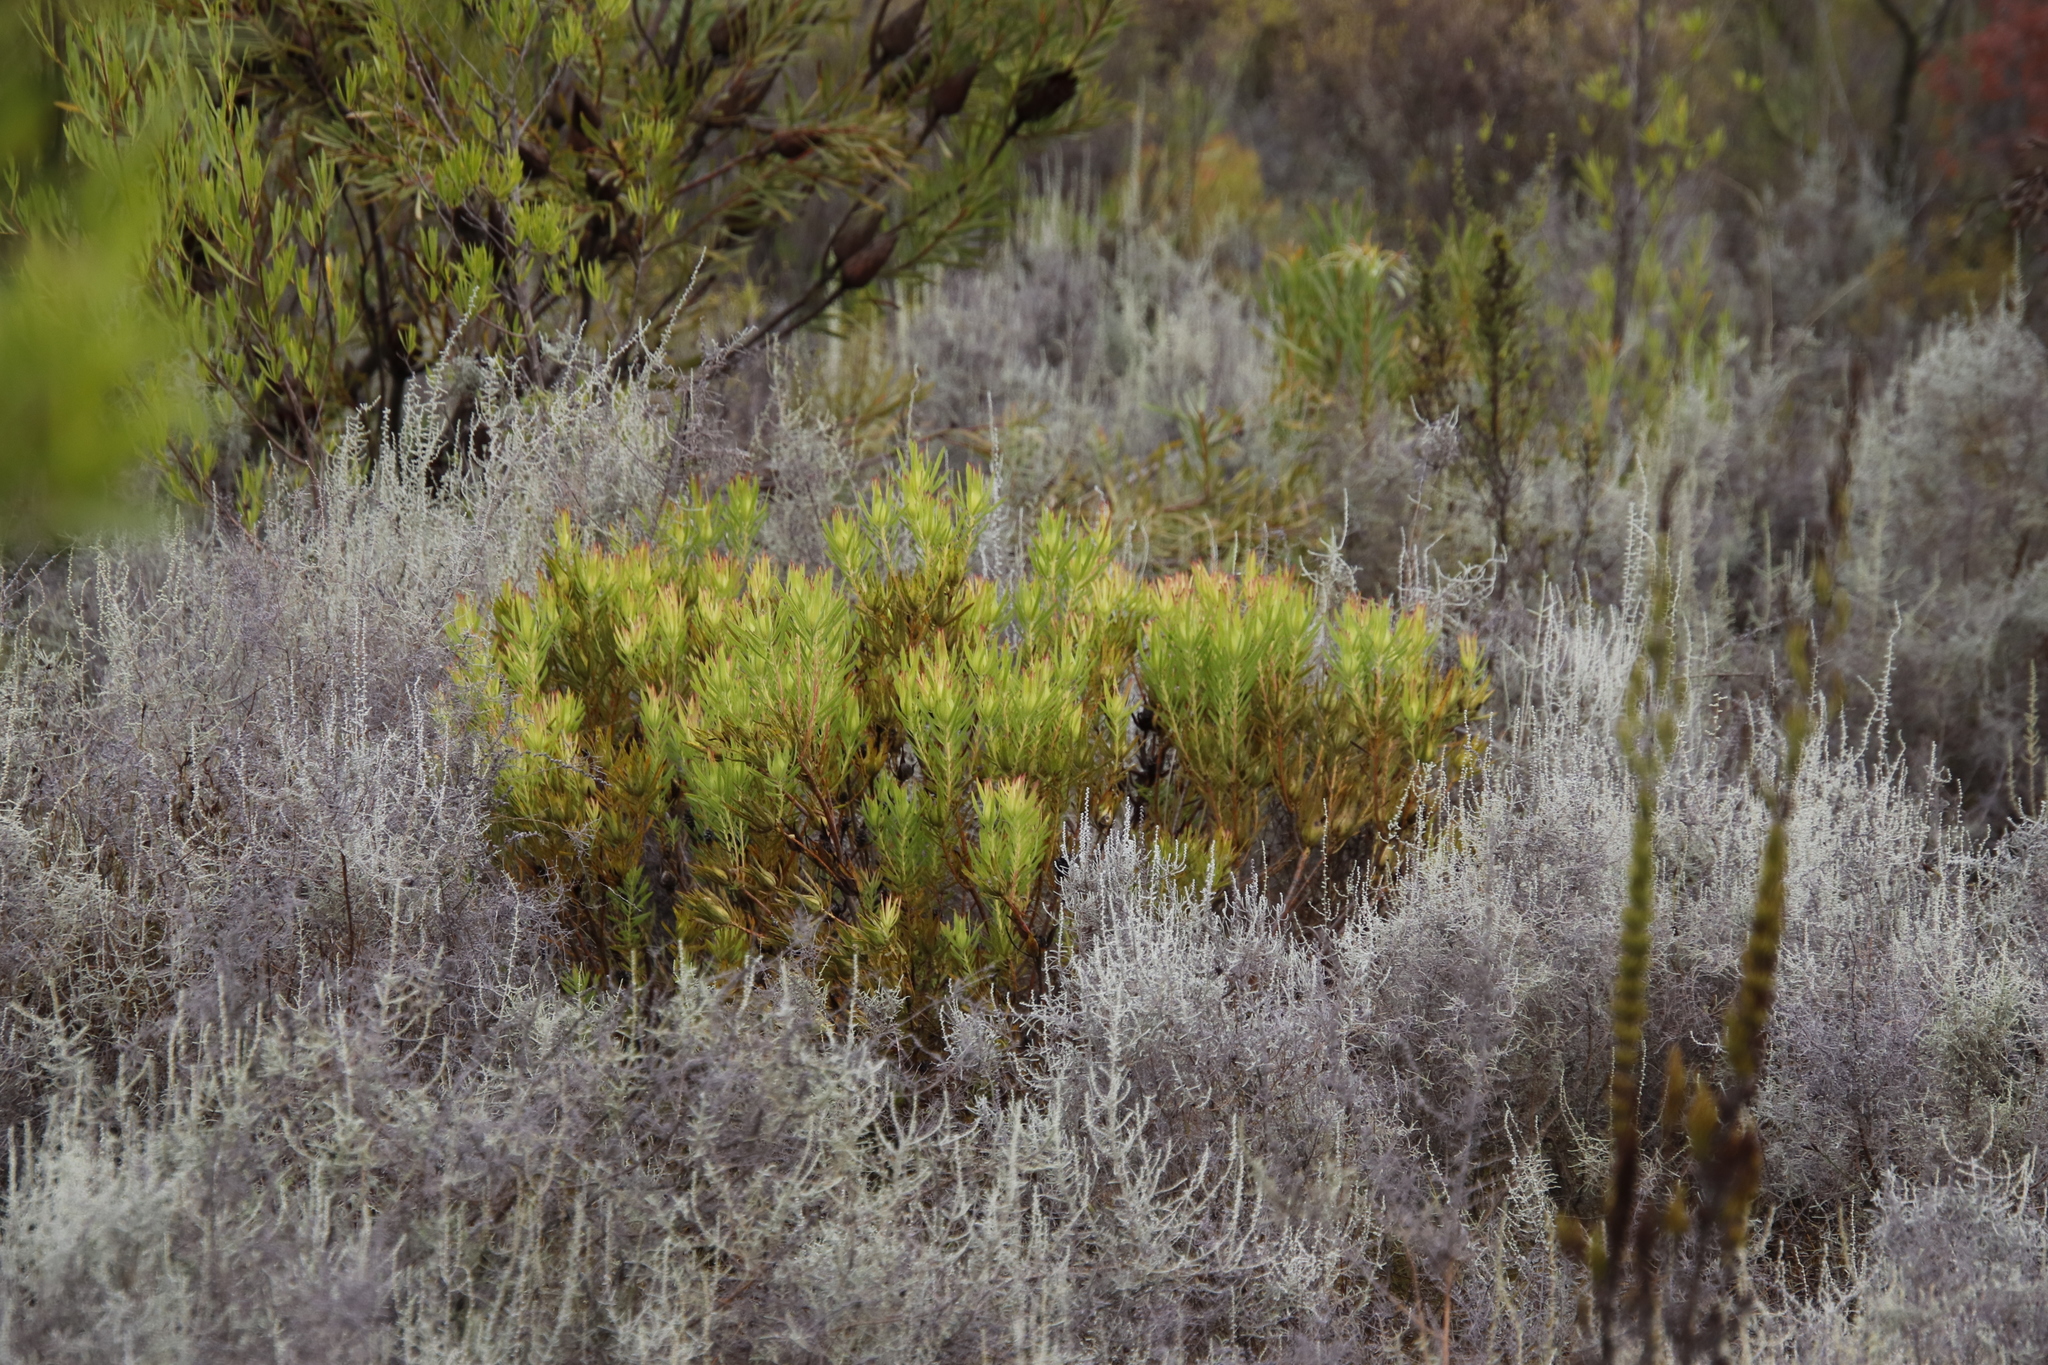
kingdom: Plantae
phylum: Tracheophyta
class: Magnoliopsida
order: Proteales
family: Proteaceae
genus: Leucadendron
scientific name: Leucadendron salignum
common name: Common sunshine conebush
